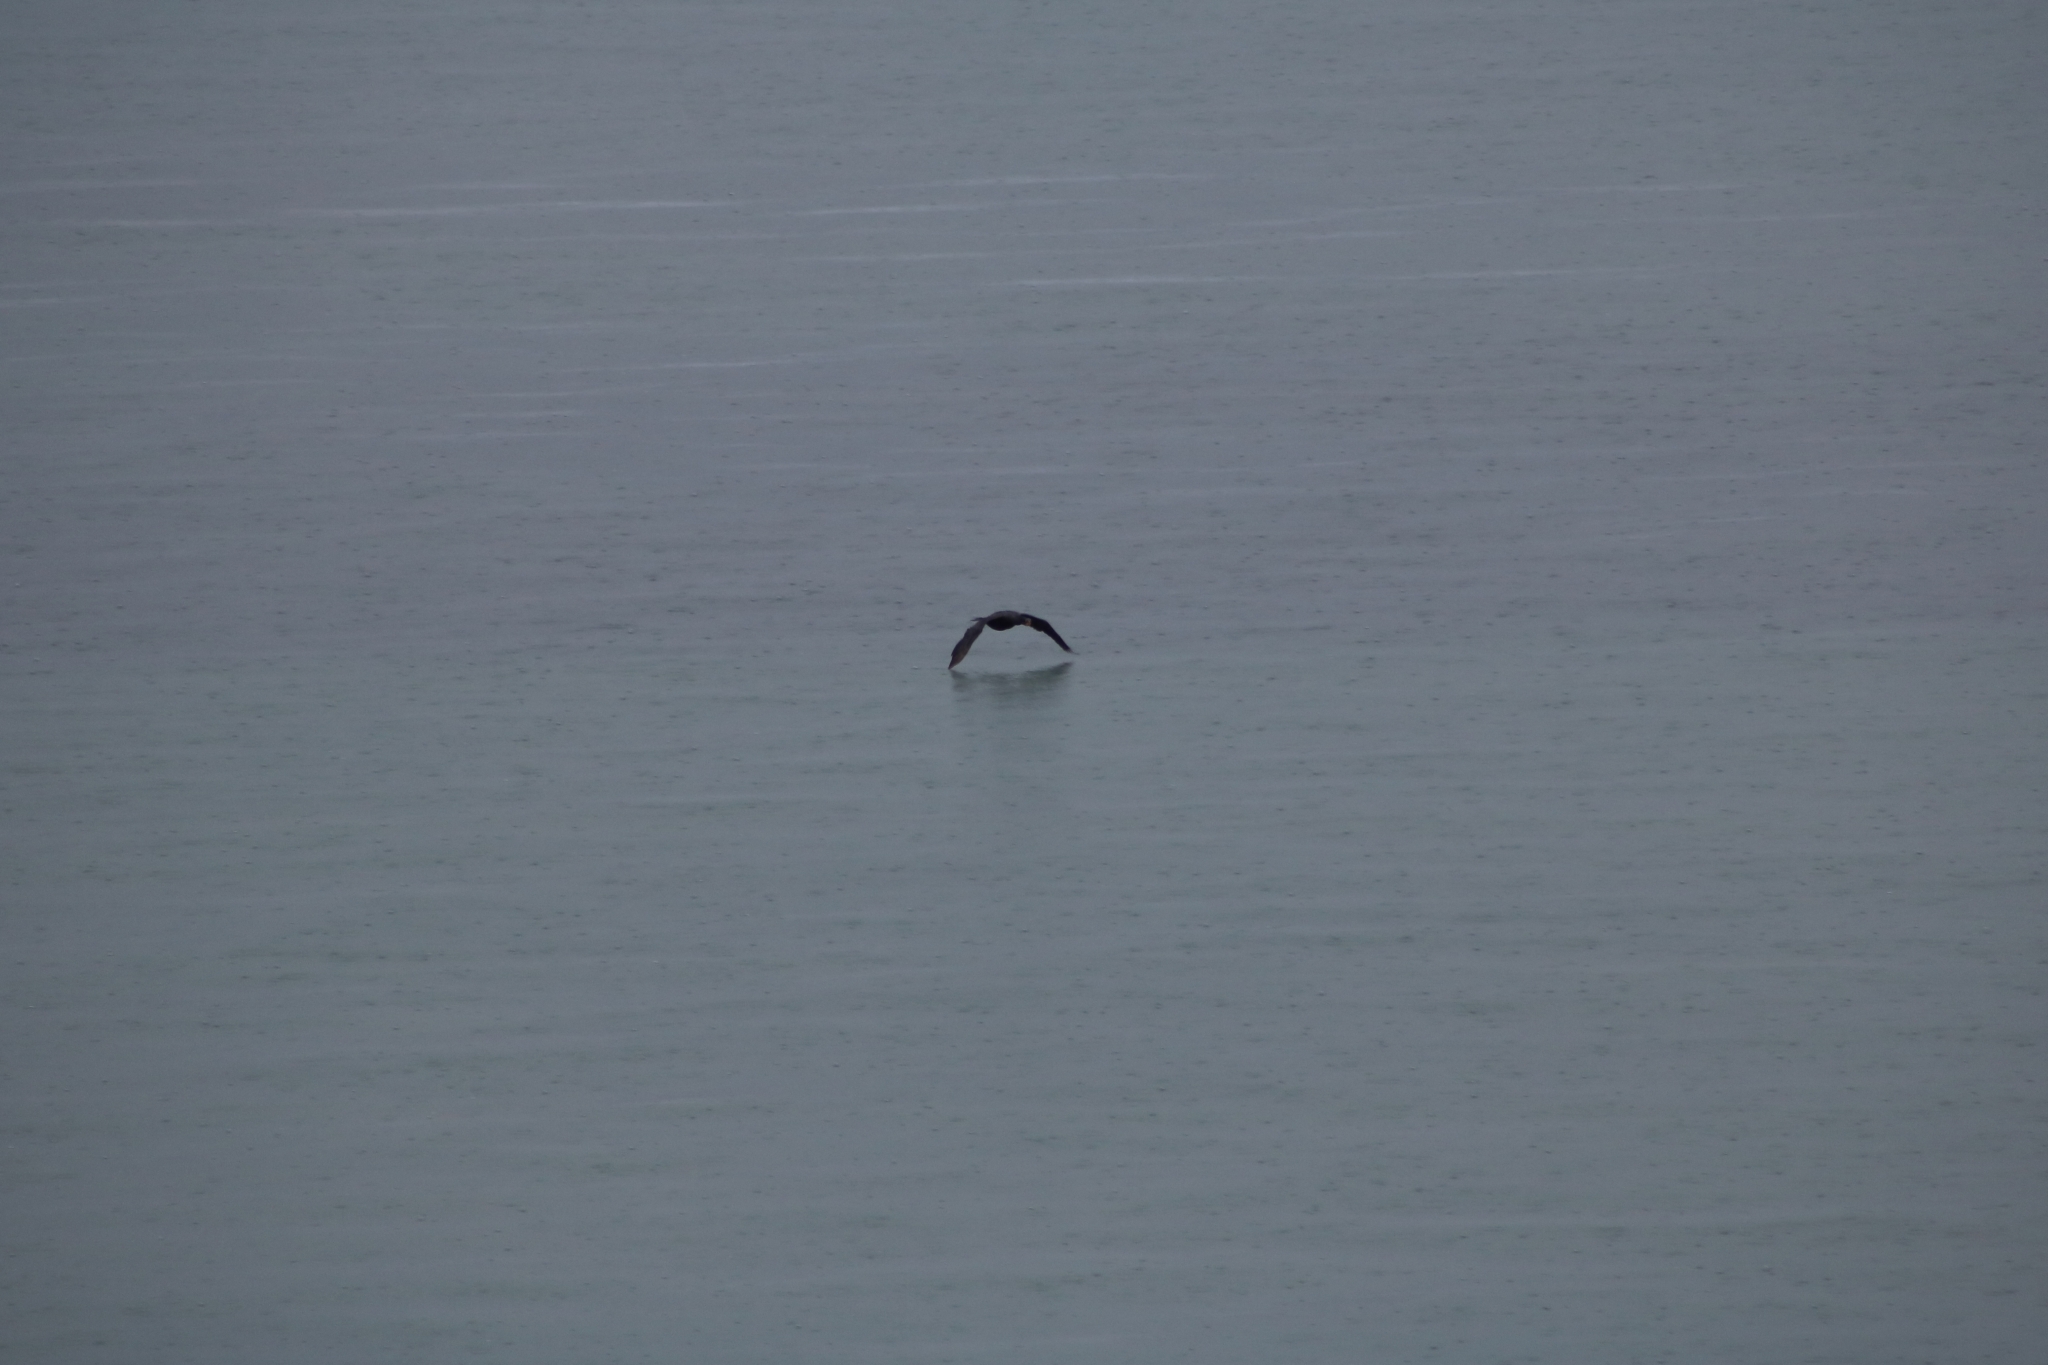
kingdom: Animalia
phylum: Chordata
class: Aves
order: Suliformes
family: Phalacrocoracidae
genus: Microcarbo
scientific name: Microcarbo melanoleucos
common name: Little pied cormorant
